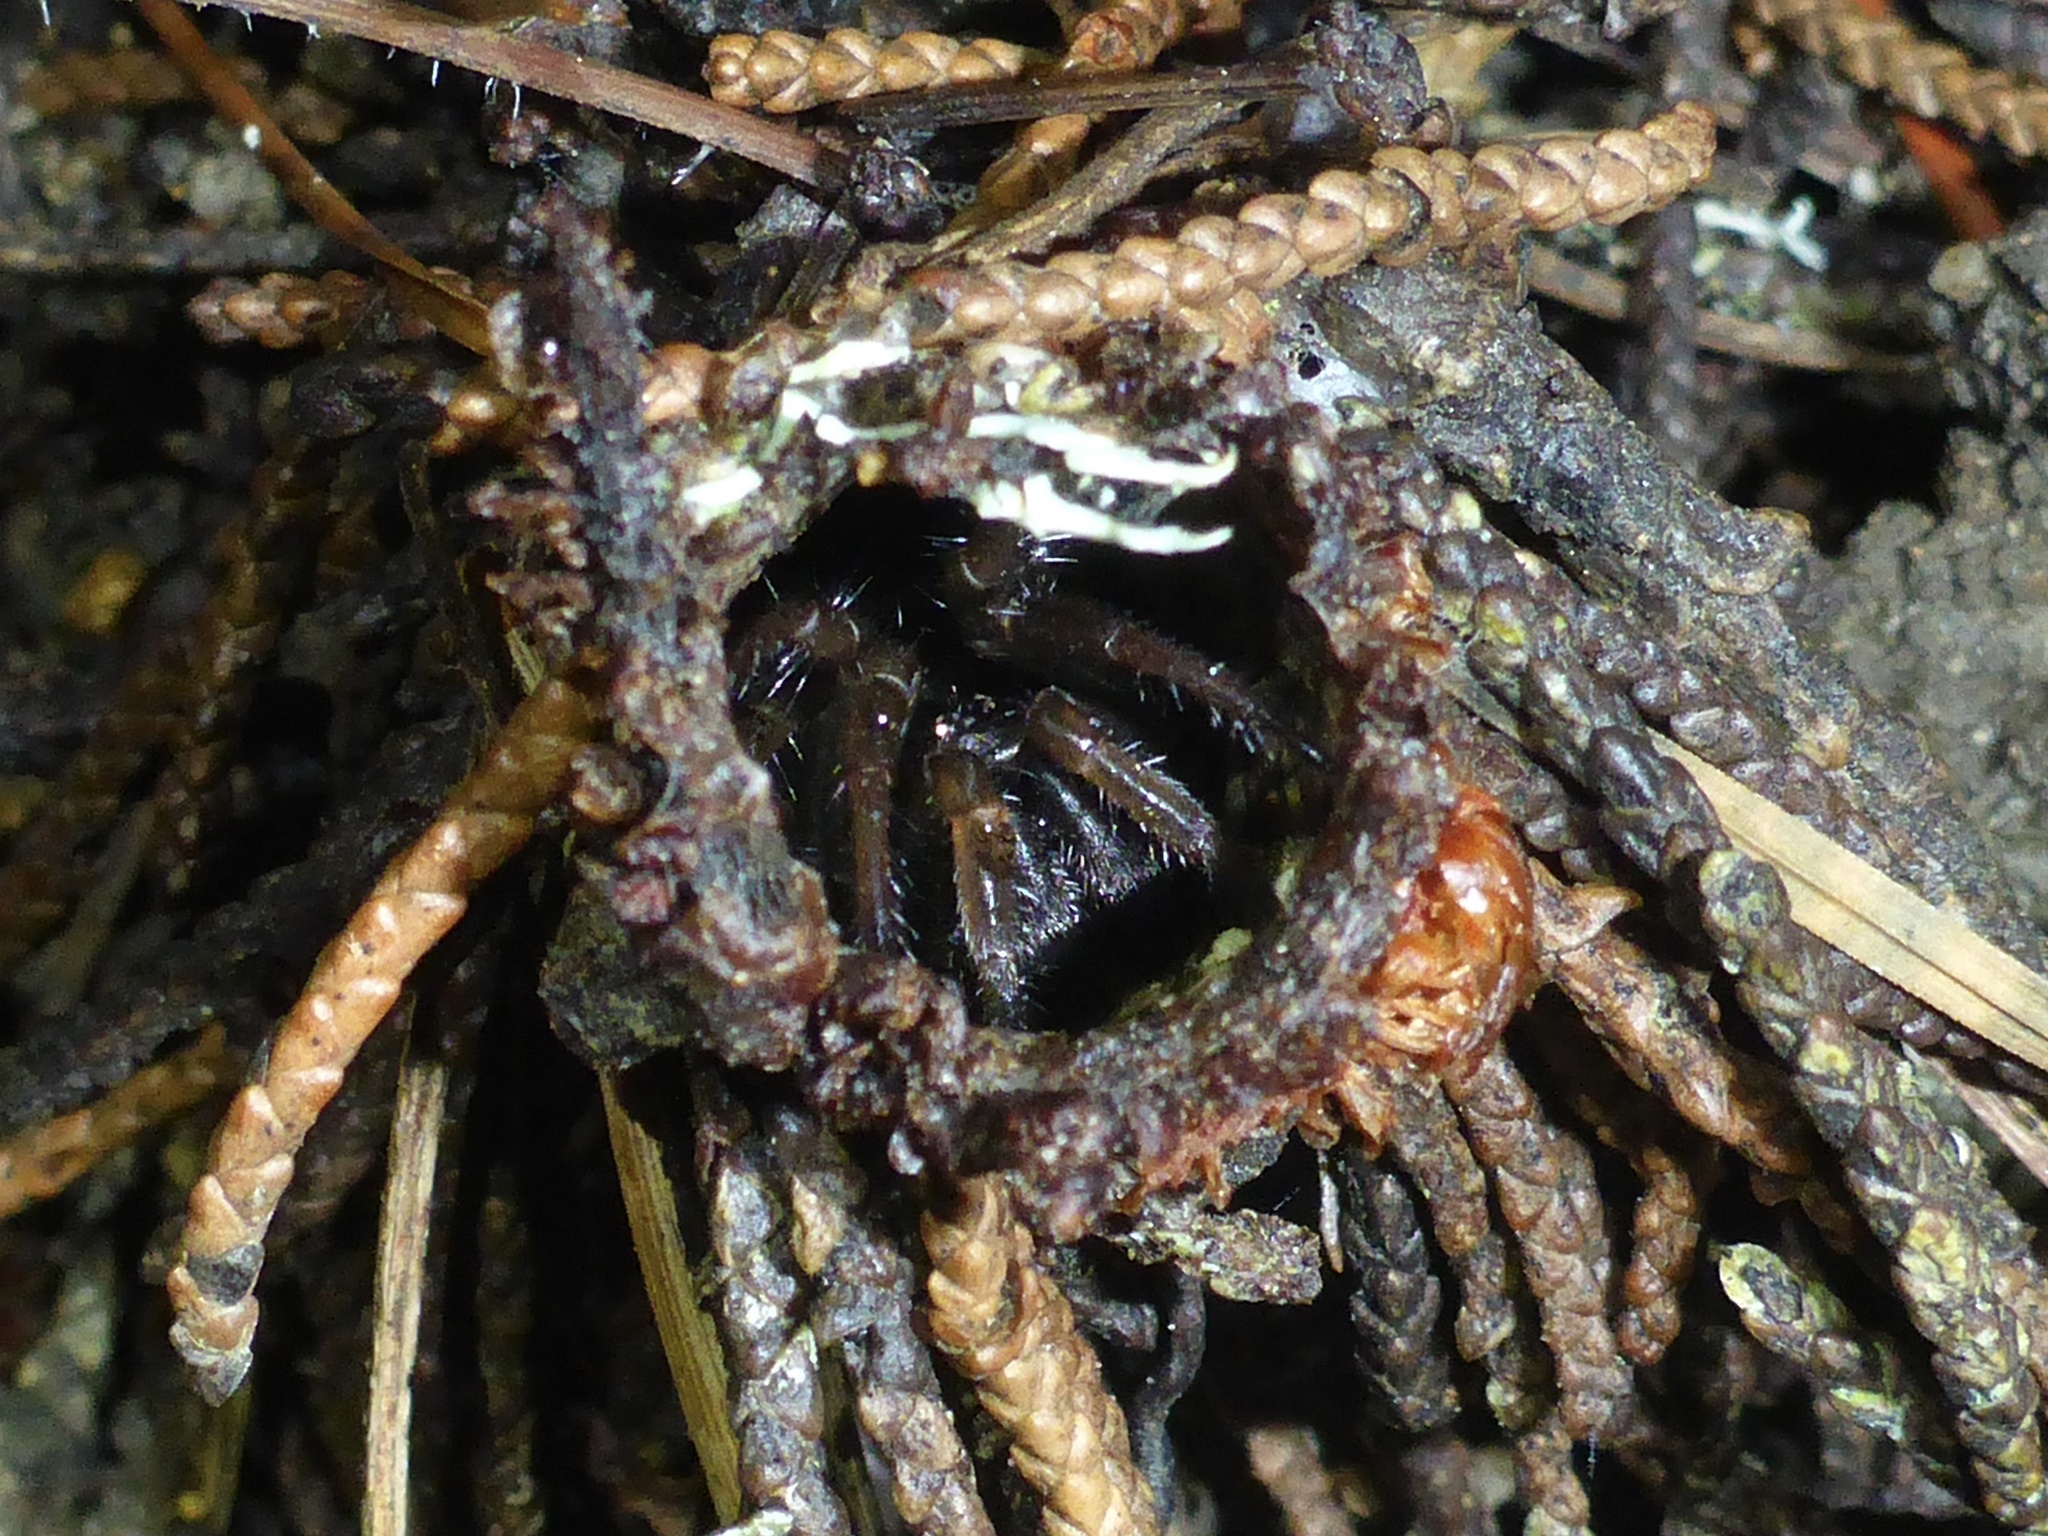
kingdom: Animalia
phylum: Arthropoda
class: Arachnida
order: Araneae
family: Antrodiaetidae
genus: Atypoides
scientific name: Atypoides riversi
